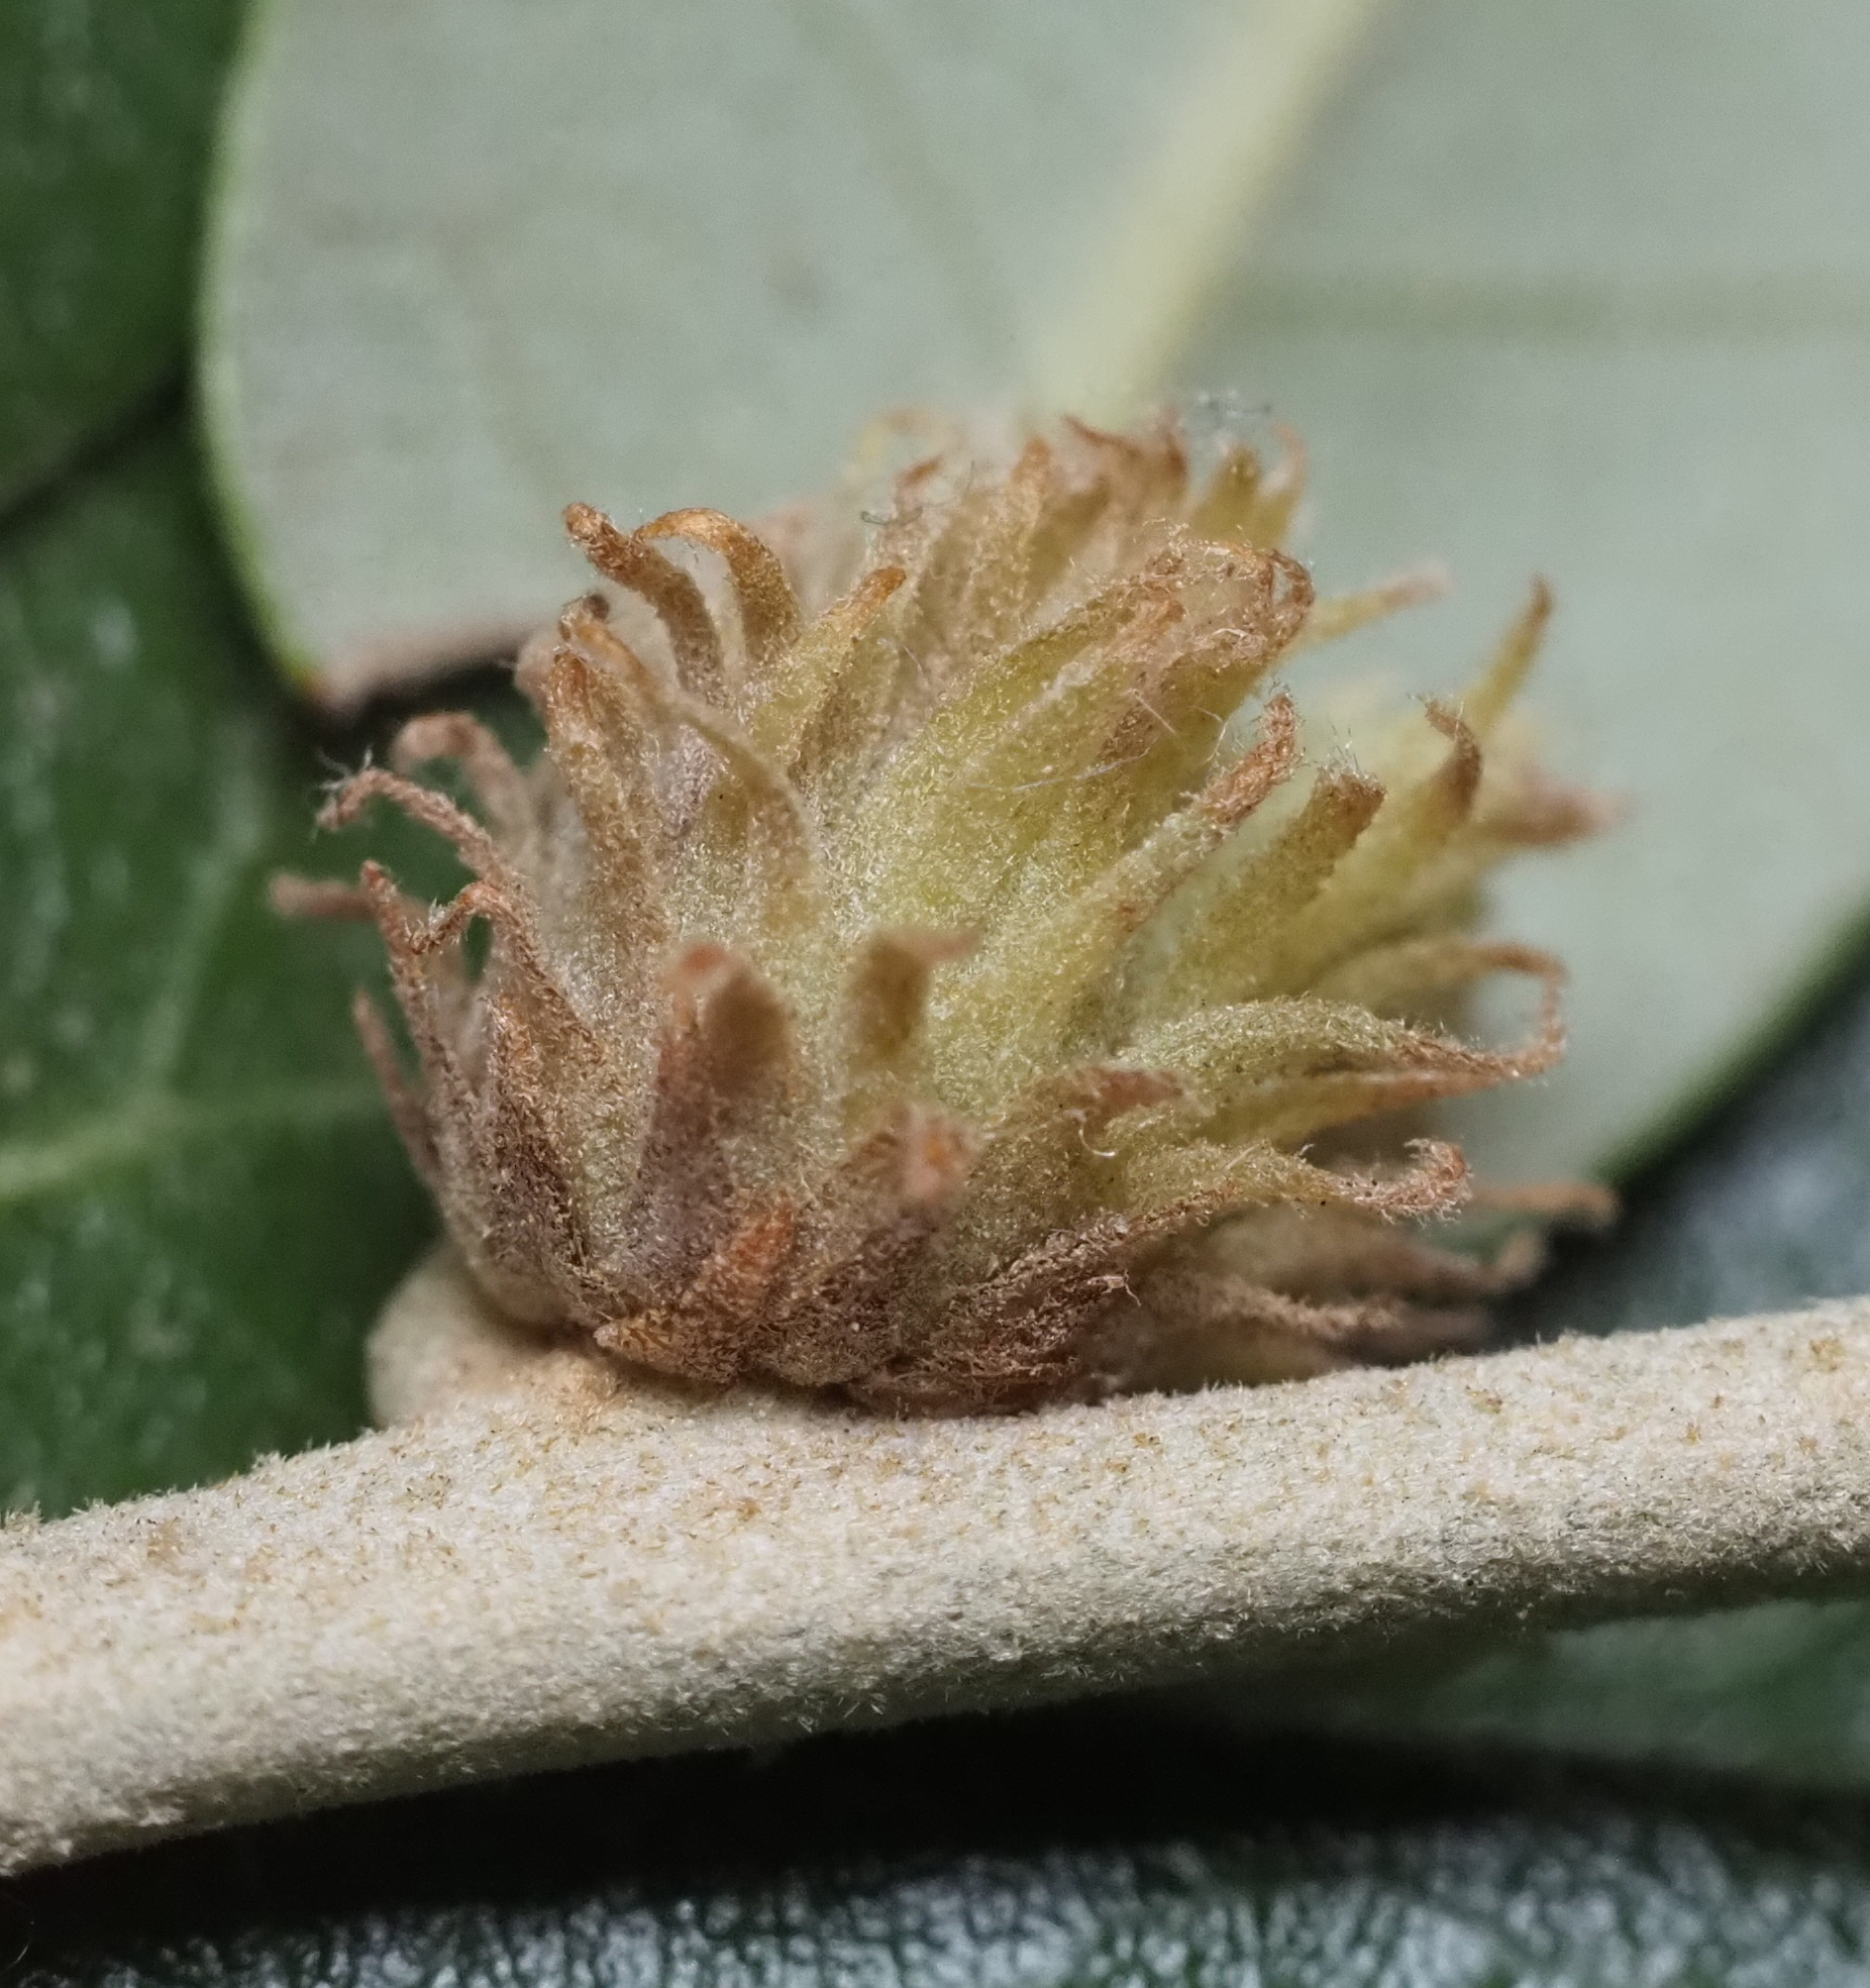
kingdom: Animalia
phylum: Arthropoda
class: Insecta
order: Hymenoptera
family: Cynipidae
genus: Andricus
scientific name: Andricus quercusfoliatus
